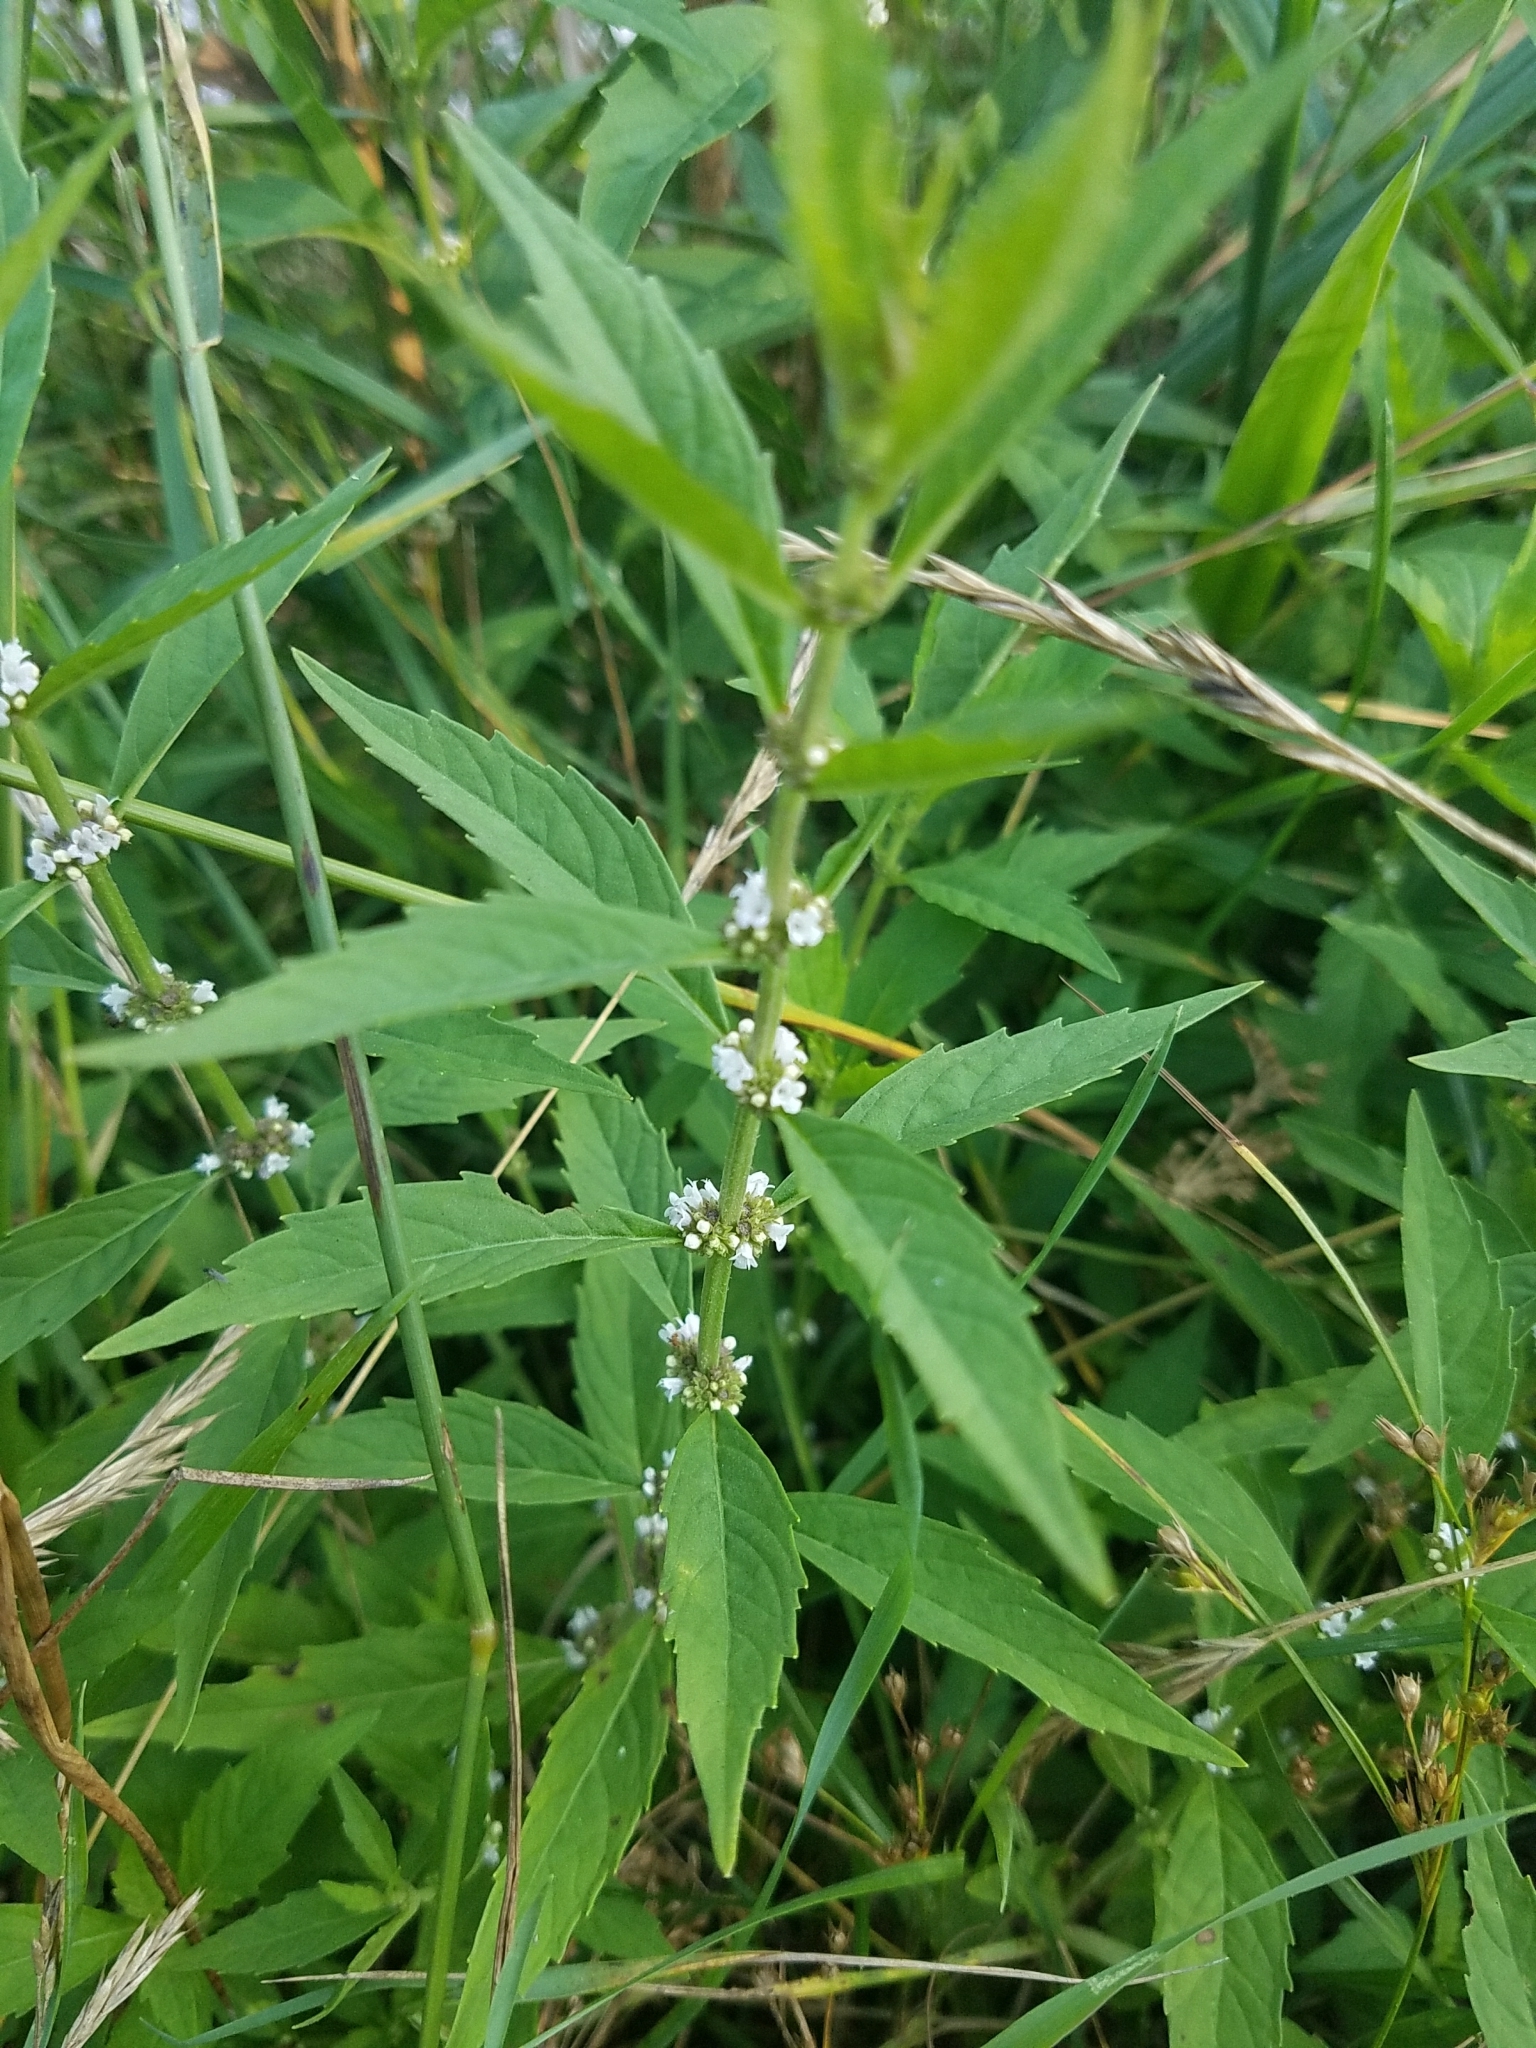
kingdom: Plantae
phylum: Tracheophyta
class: Magnoliopsida
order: Lamiales
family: Lamiaceae
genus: Lycopus
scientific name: Lycopus uniflorus
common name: Northern bugleweed
